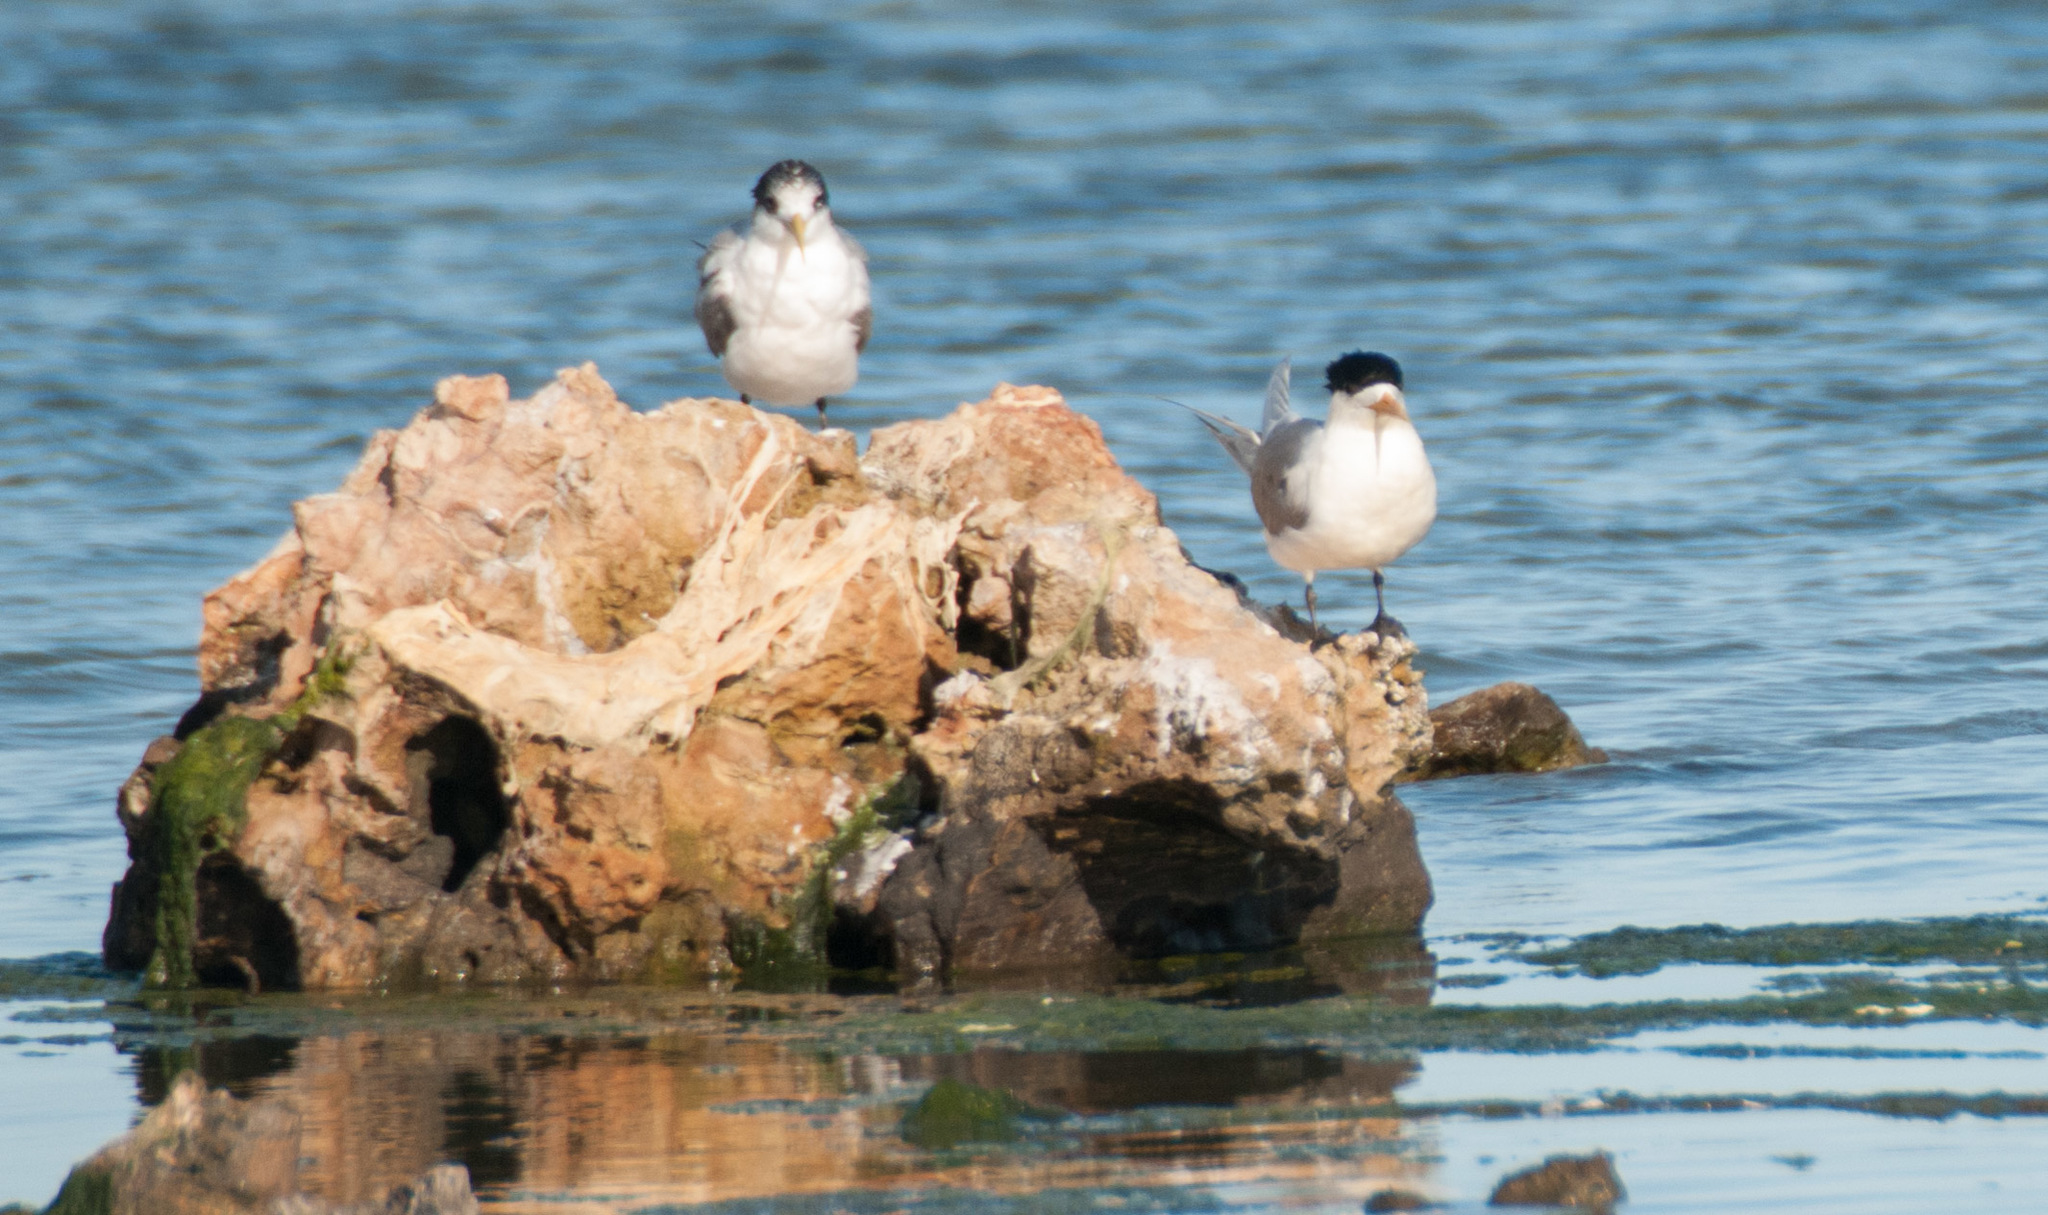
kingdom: Animalia
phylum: Chordata
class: Aves
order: Charadriiformes
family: Laridae
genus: Thalasseus
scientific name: Thalasseus bergii
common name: Greater crested tern
